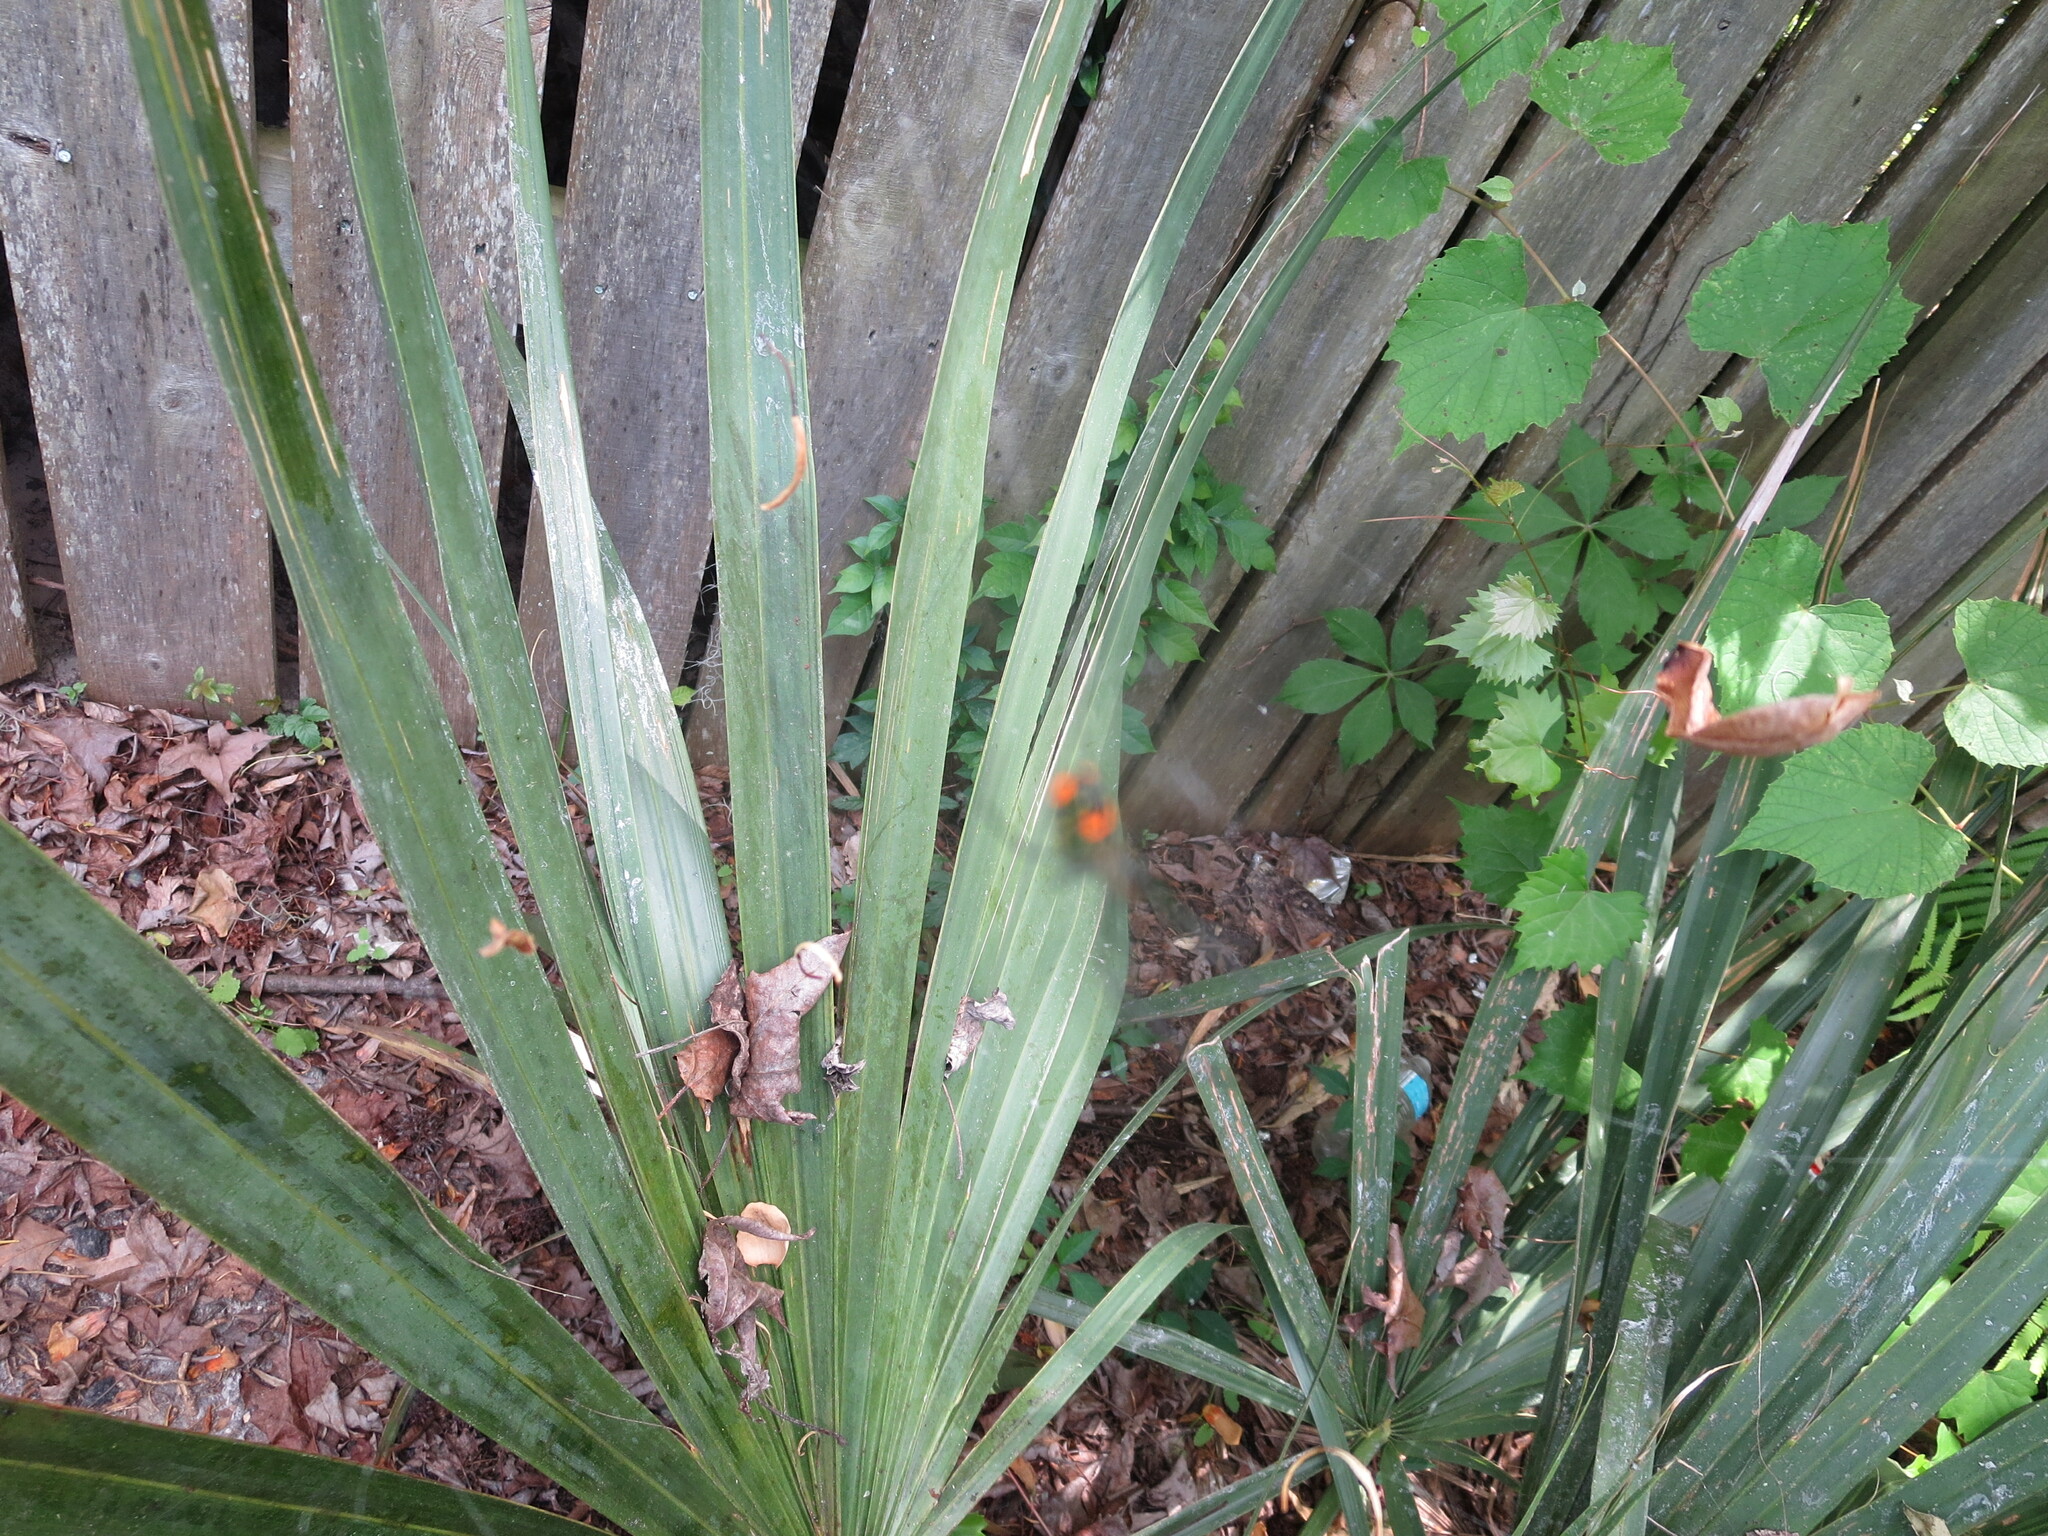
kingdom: Animalia
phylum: Arthropoda
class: Arachnida
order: Araneae
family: Tetragnathidae
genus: Leucauge
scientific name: Leucauge argyrobapta
